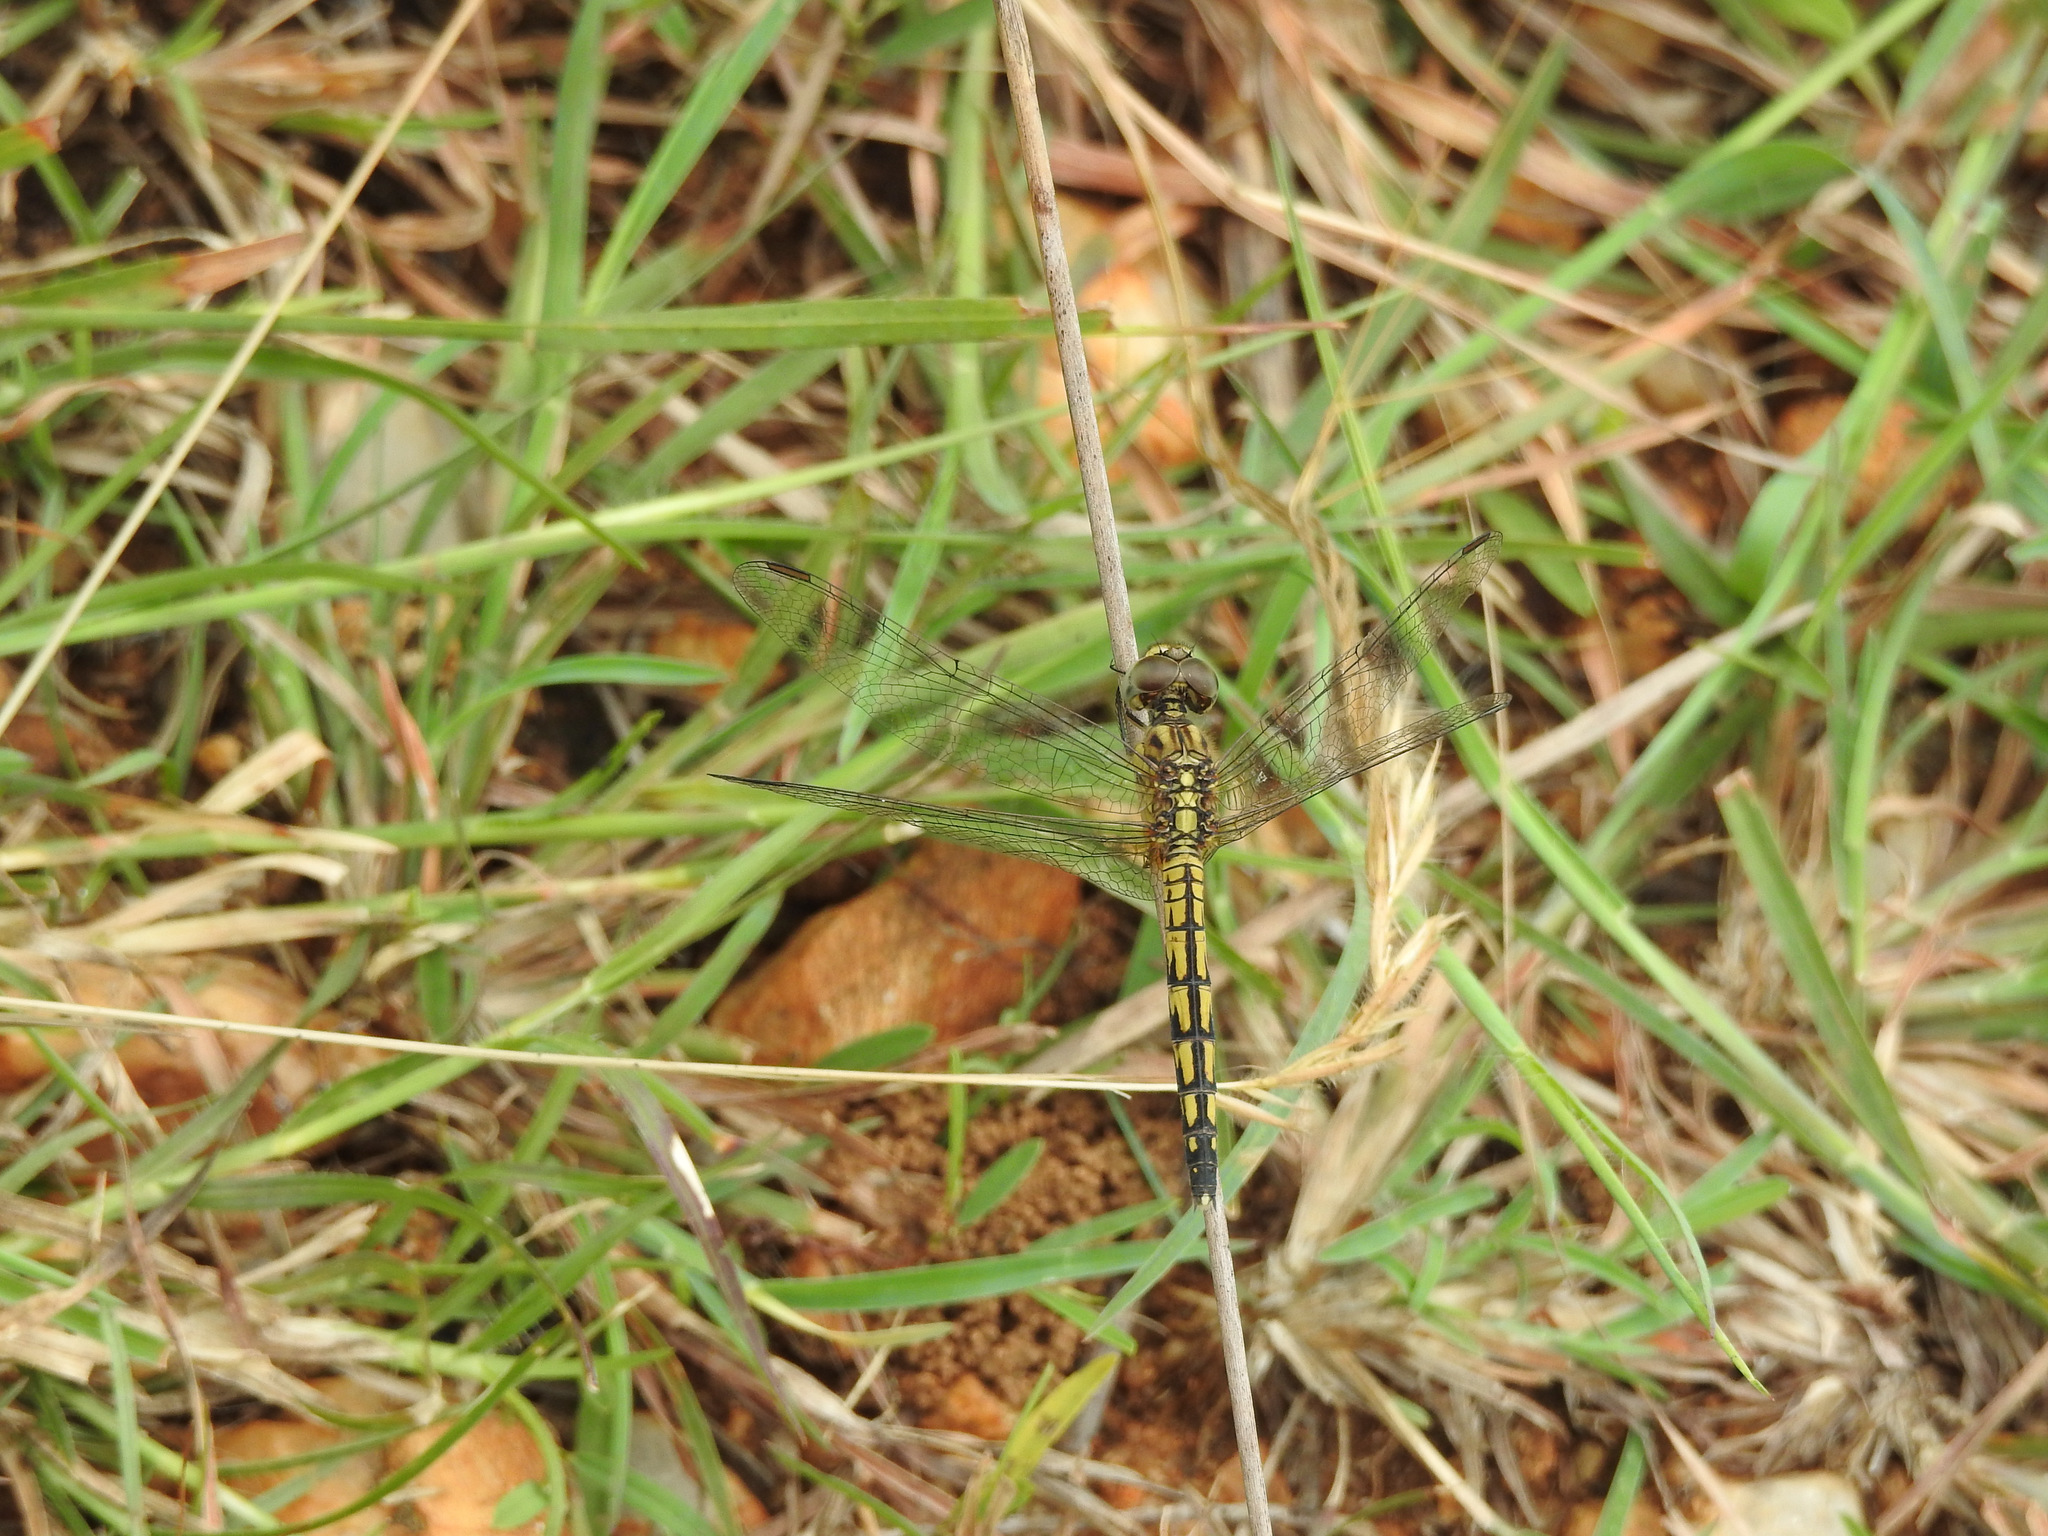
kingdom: Animalia
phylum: Arthropoda
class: Insecta
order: Odonata
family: Libellulidae
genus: Indothemis
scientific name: Indothemis carnatica
